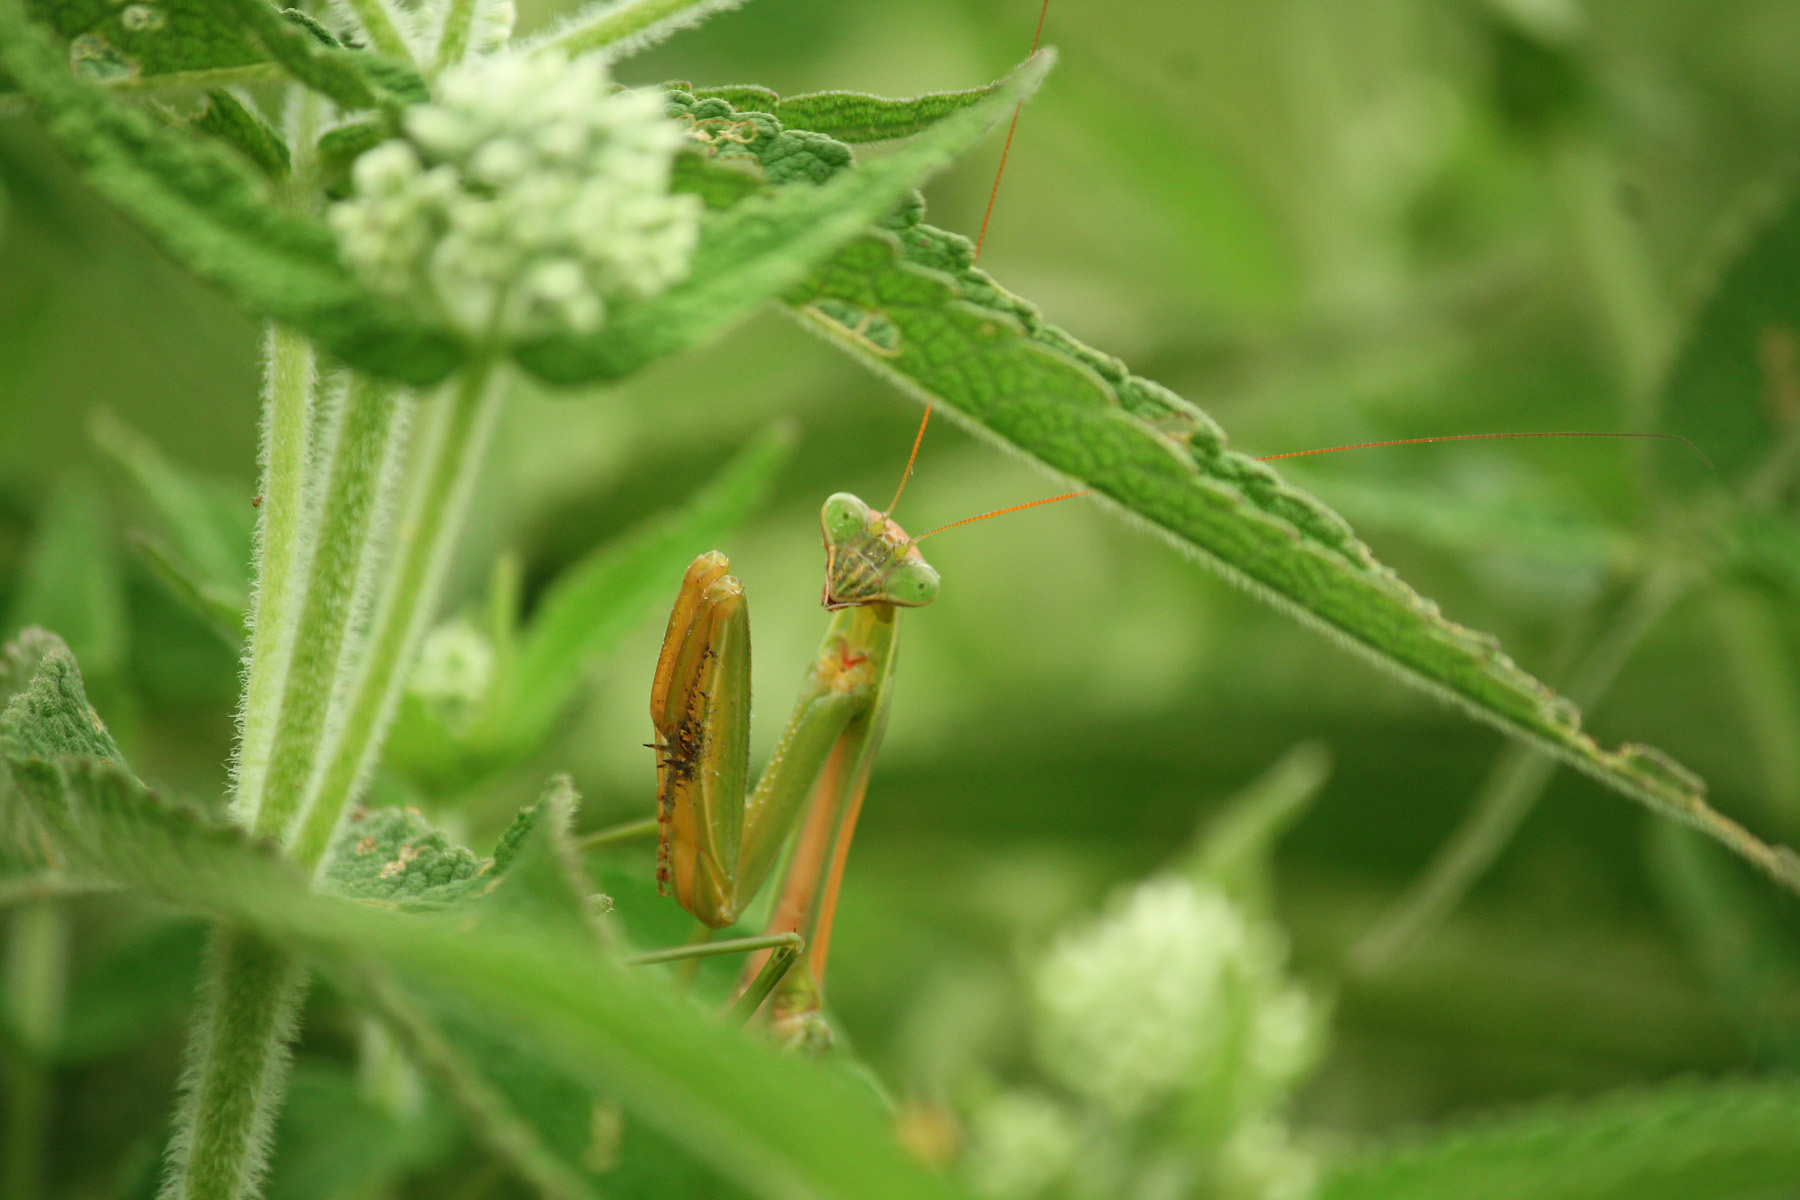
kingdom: Animalia
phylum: Arthropoda
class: Insecta
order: Mantodea
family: Mantidae
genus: Tenodera
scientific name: Tenodera sinensis
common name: Chinese mantis
